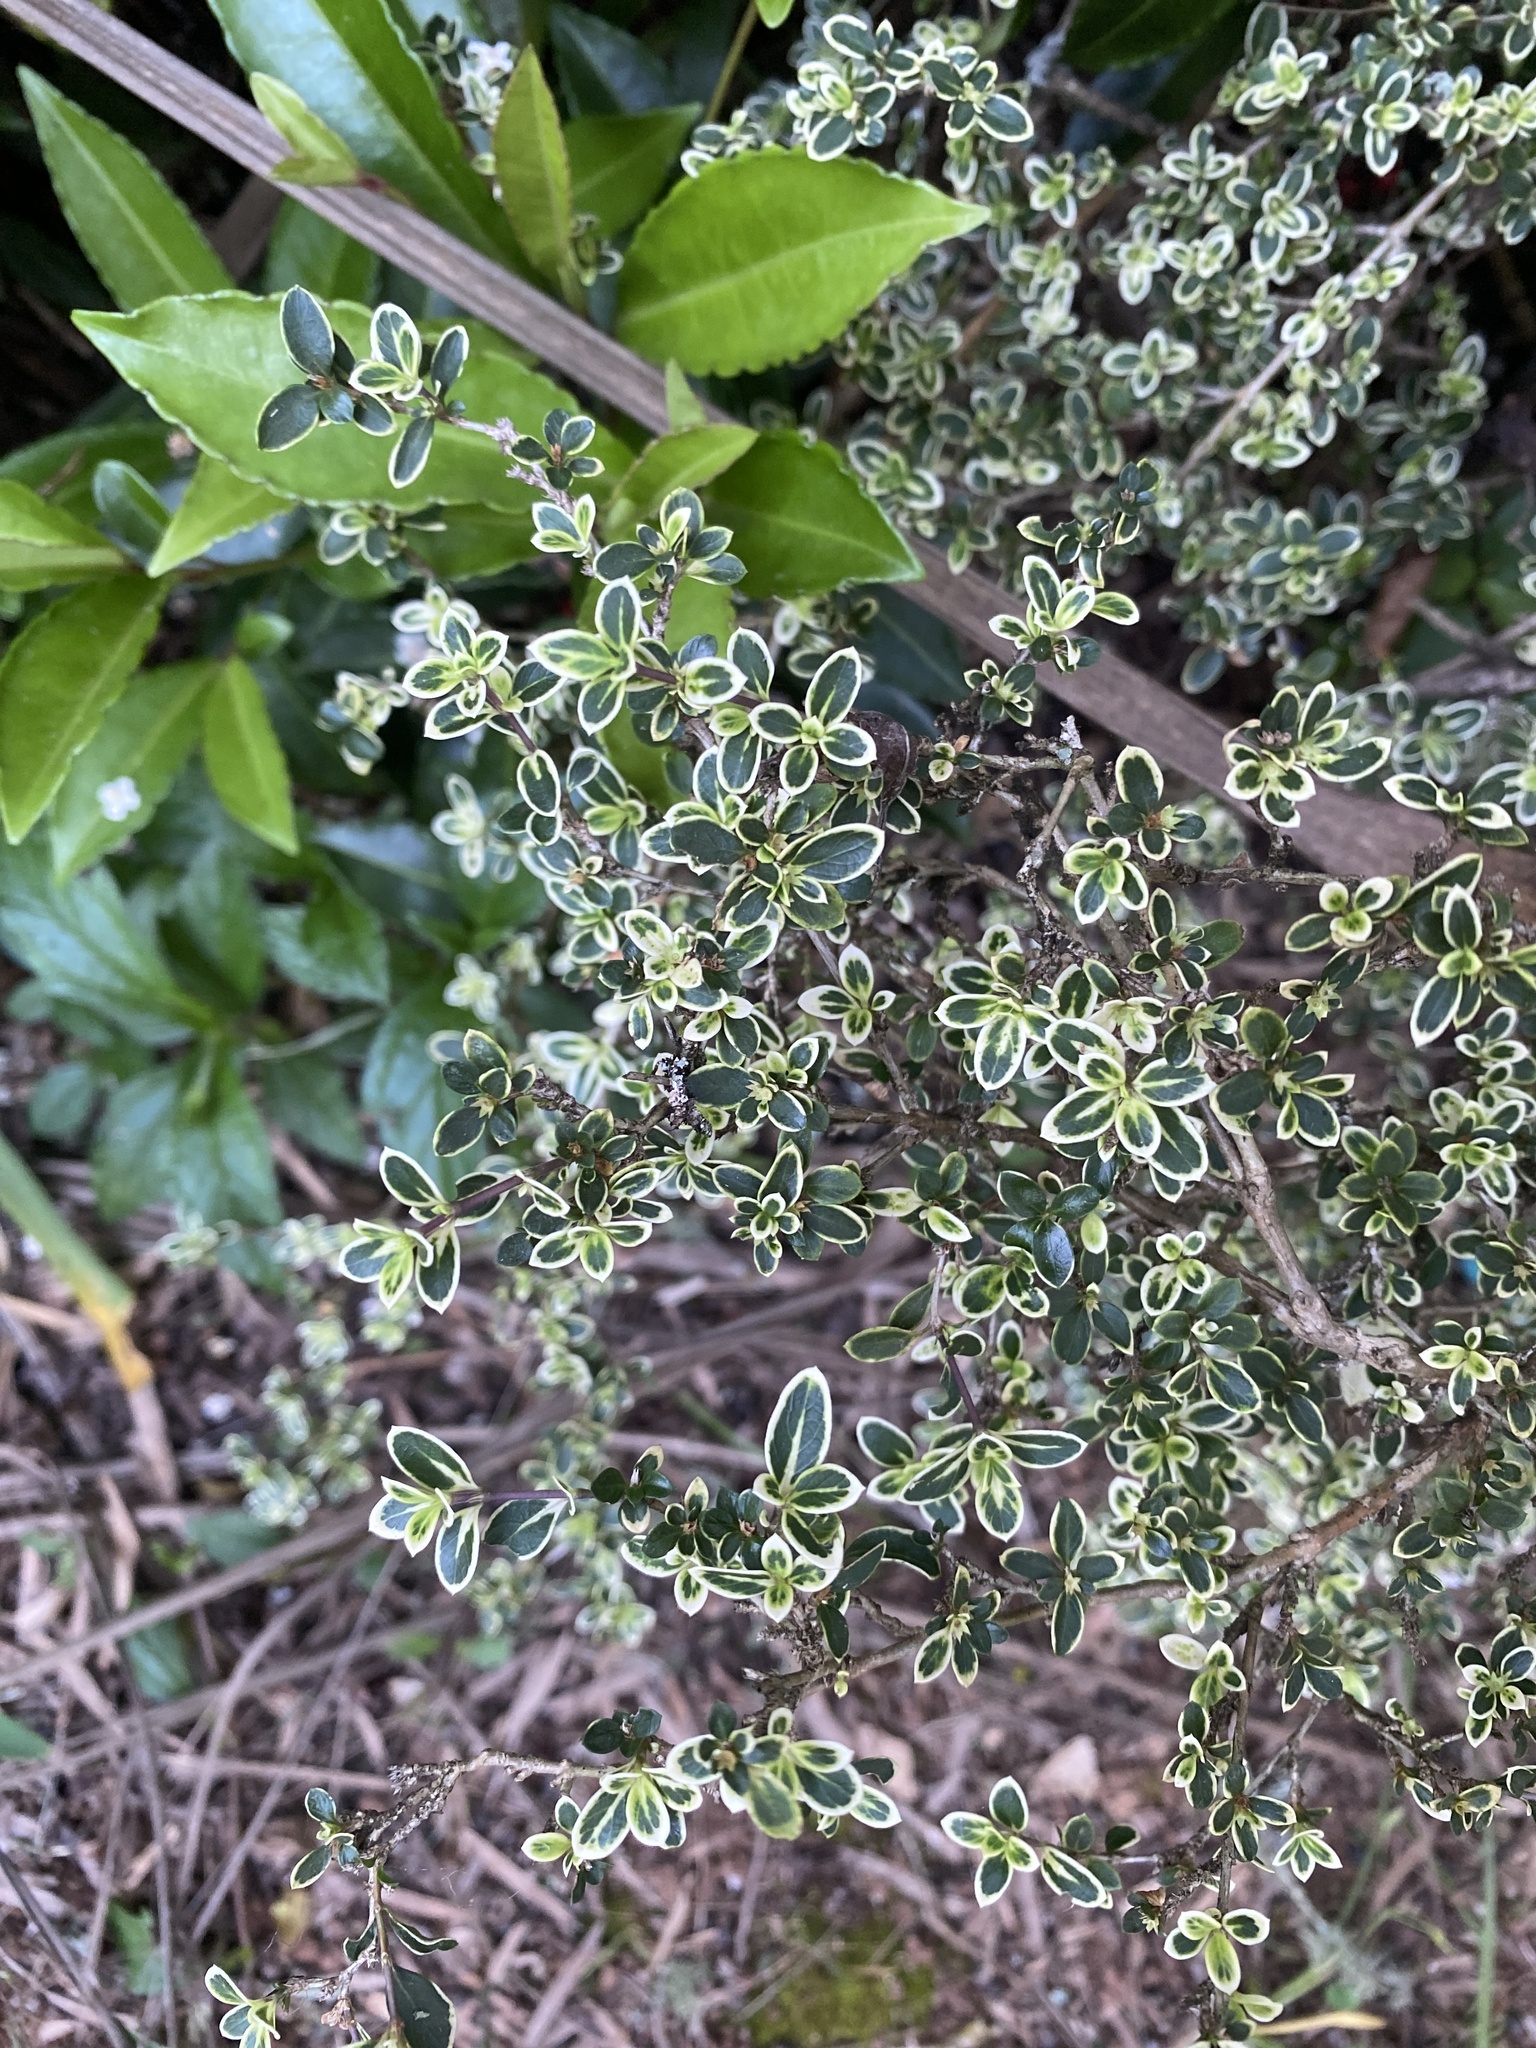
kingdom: Plantae
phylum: Tracheophyta
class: Magnoliopsida
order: Gentianales
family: Rubiaceae
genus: Buchozia
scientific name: Buchozia japonica
